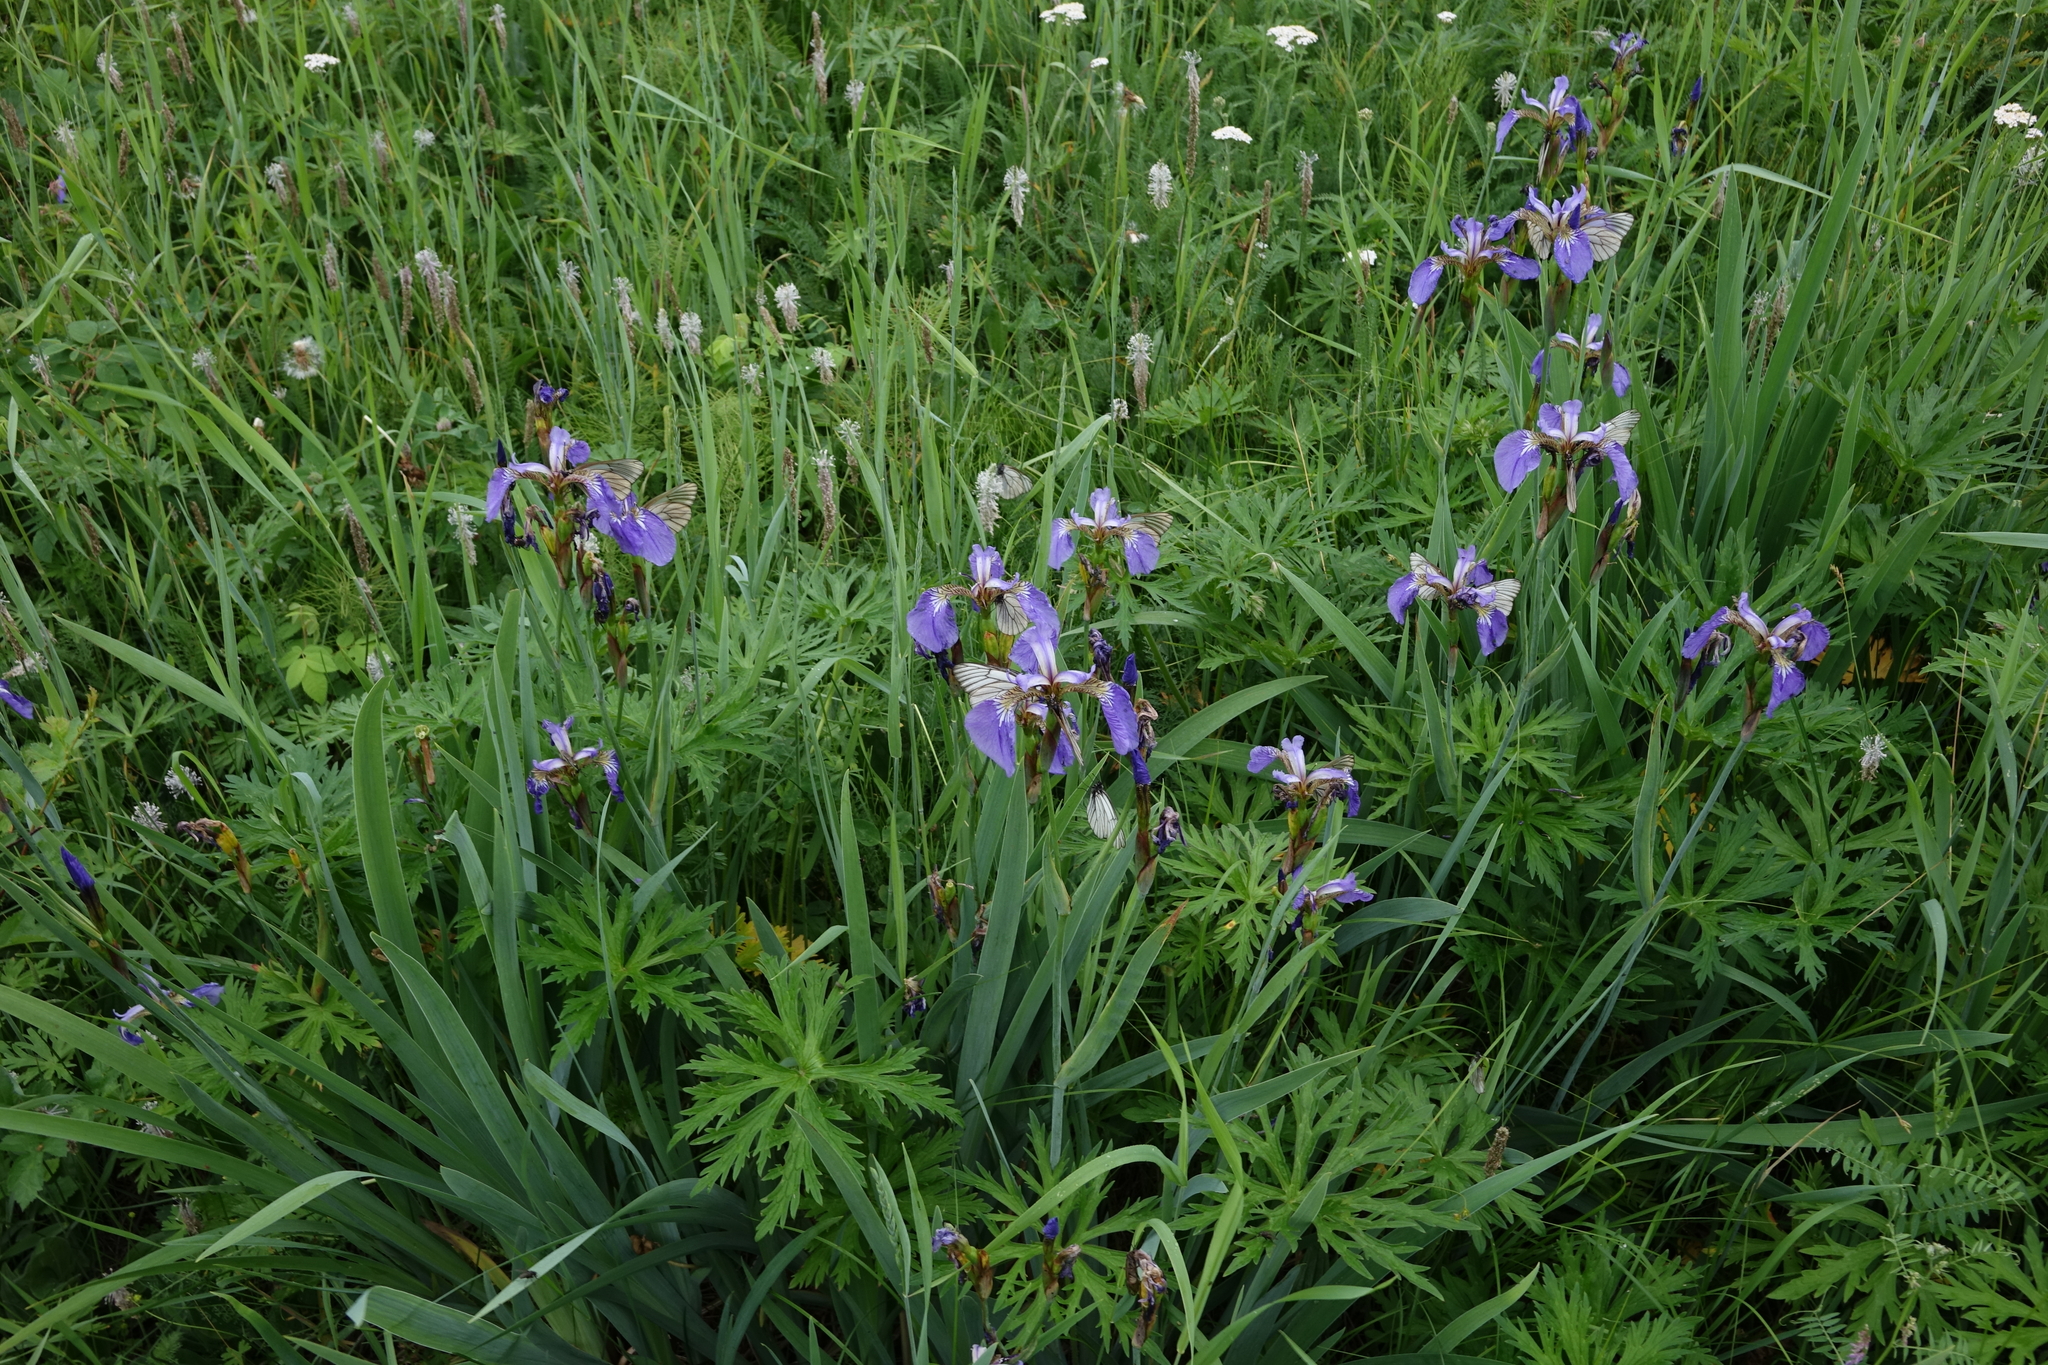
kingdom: Plantae
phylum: Tracheophyta
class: Liliopsida
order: Asparagales
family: Iridaceae
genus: Iris
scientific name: Iris setosa
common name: Arctic blue flag
